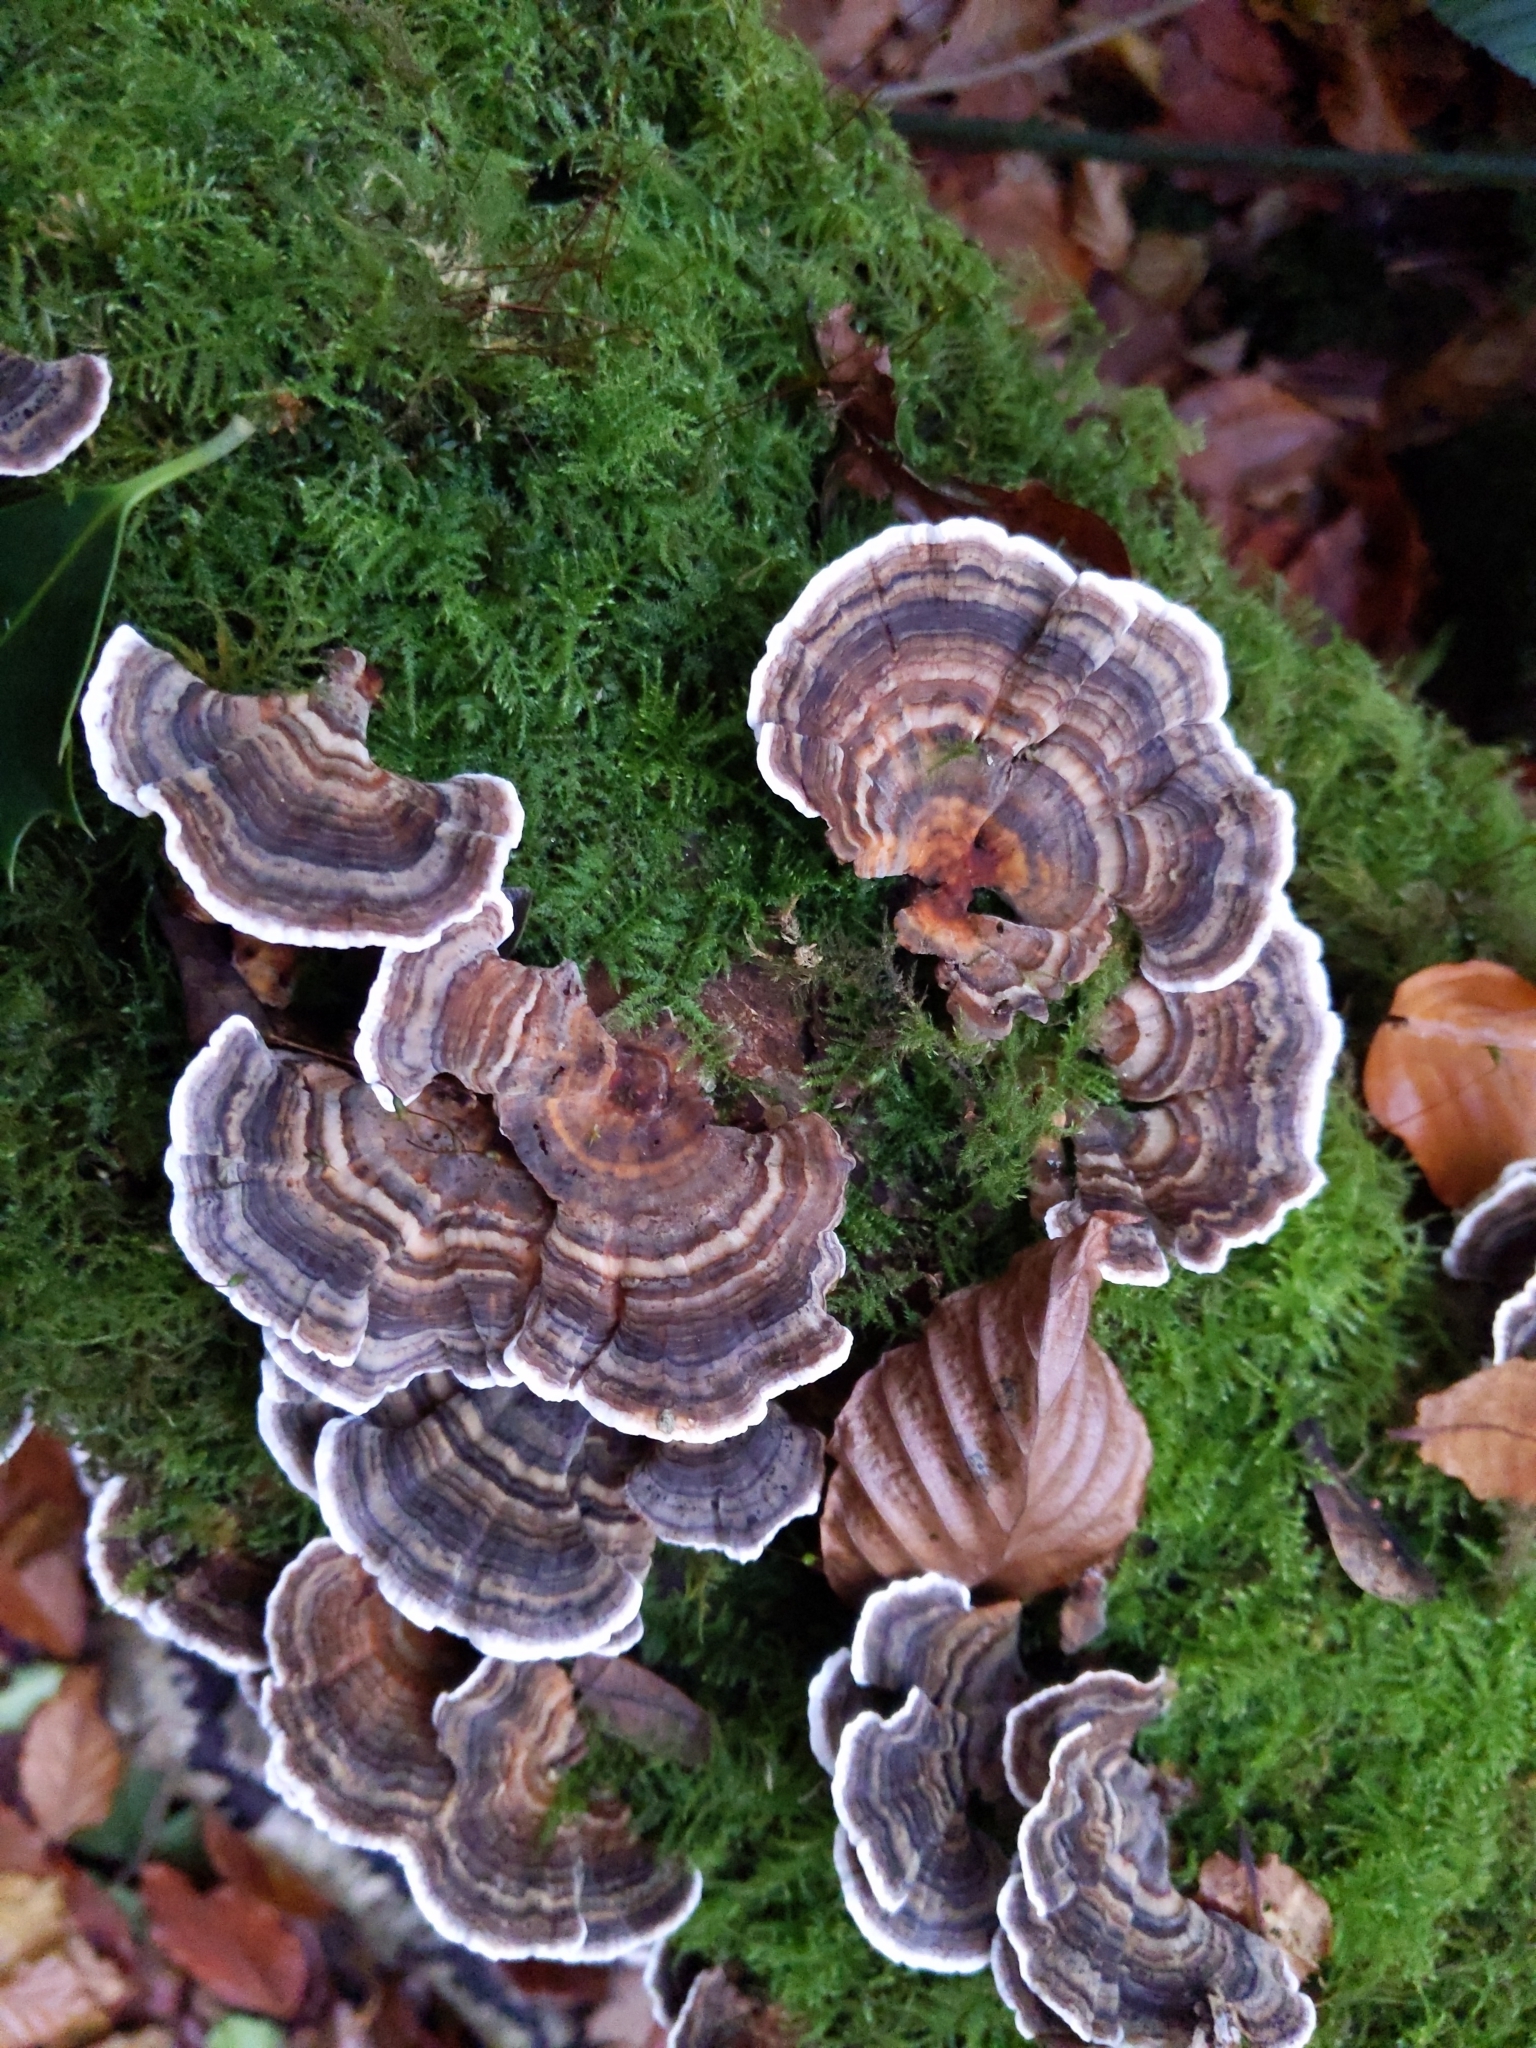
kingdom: Fungi
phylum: Basidiomycota
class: Agaricomycetes
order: Polyporales
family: Polyporaceae
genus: Trametes
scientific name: Trametes versicolor
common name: Turkeytail
